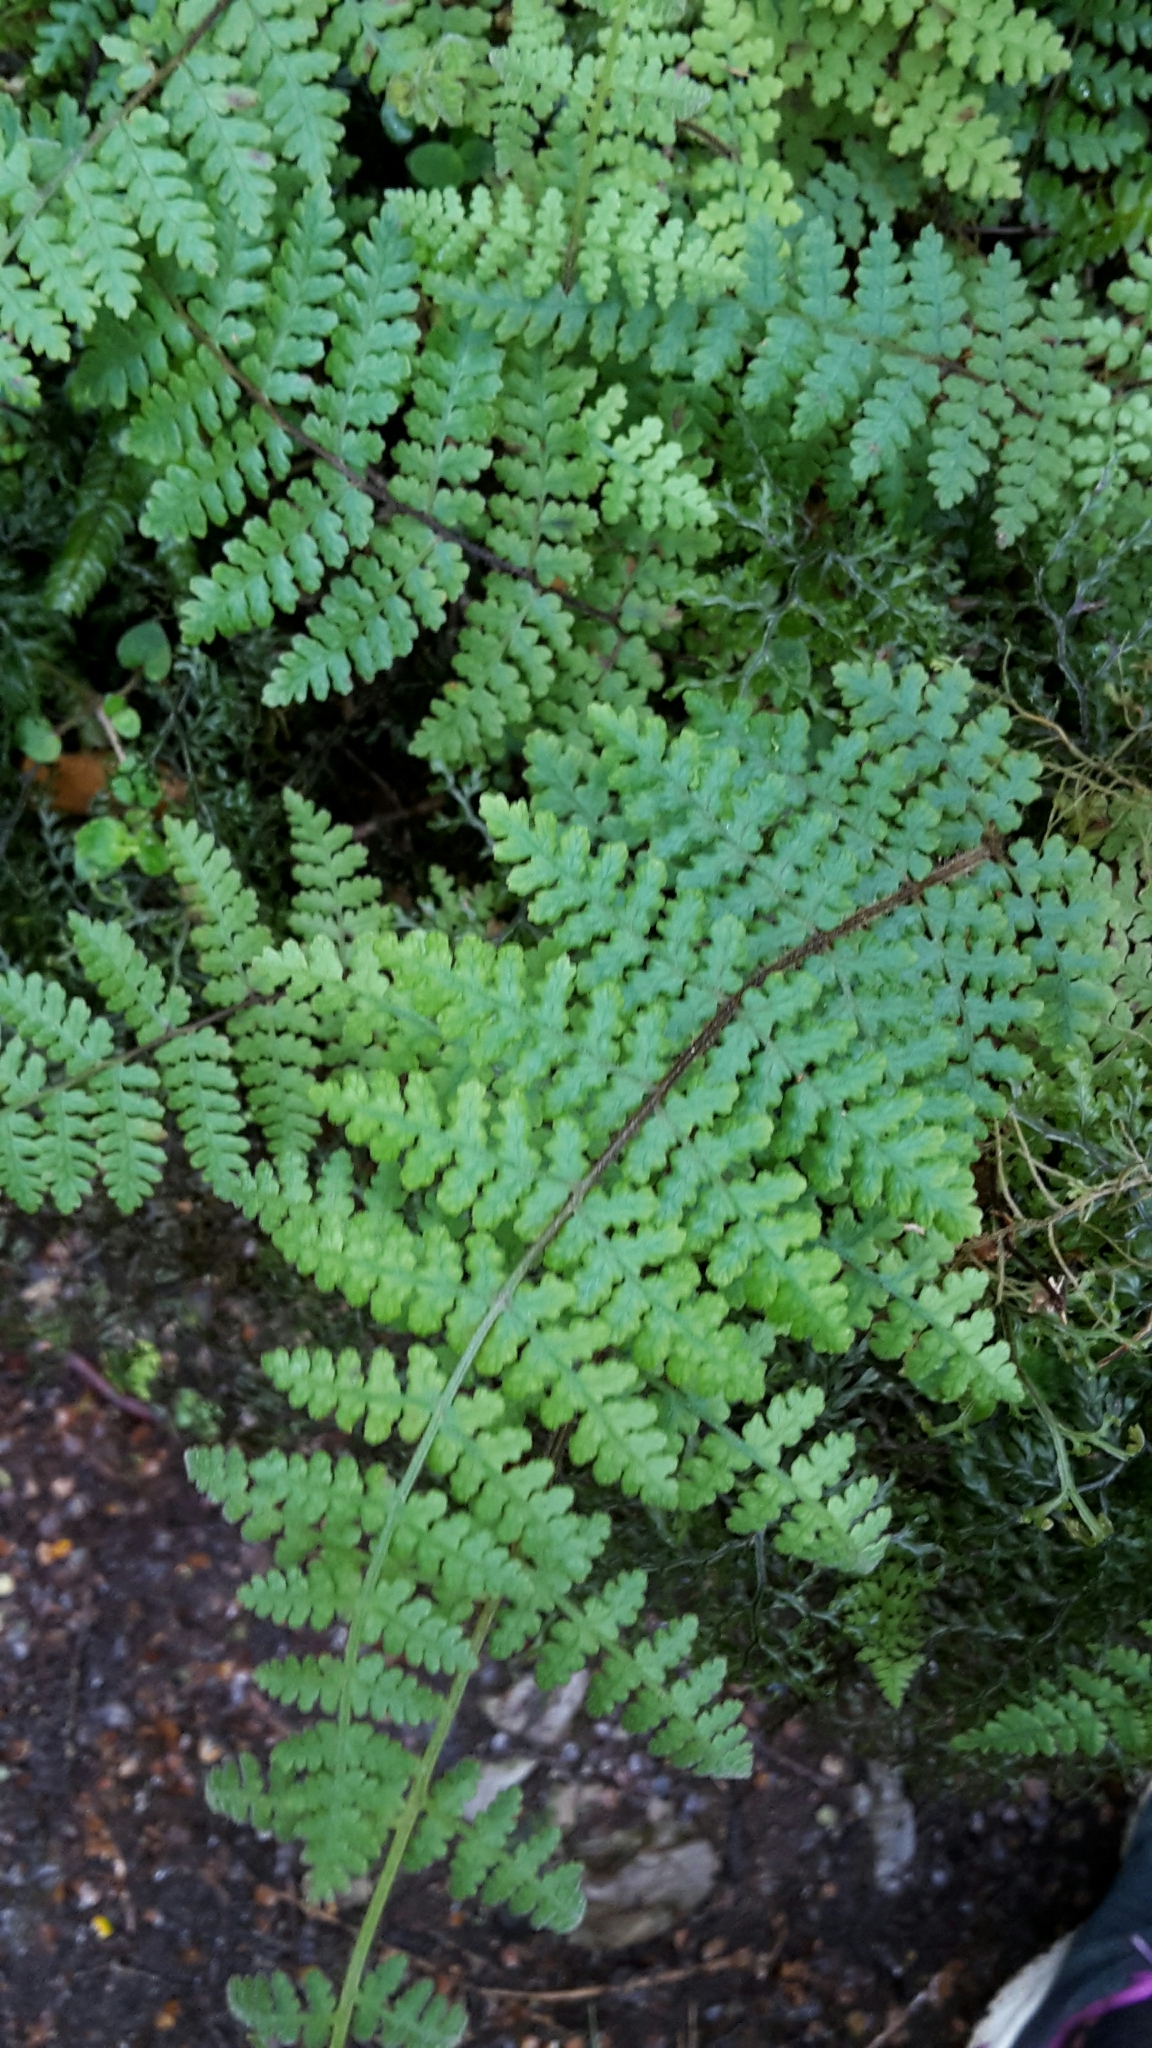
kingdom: Plantae
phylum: Tracheophyta
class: Polypodiopsida
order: Polypodiales
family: Dennstaedtiaceae
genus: Hypolepis
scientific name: Hypolepis rugosula
